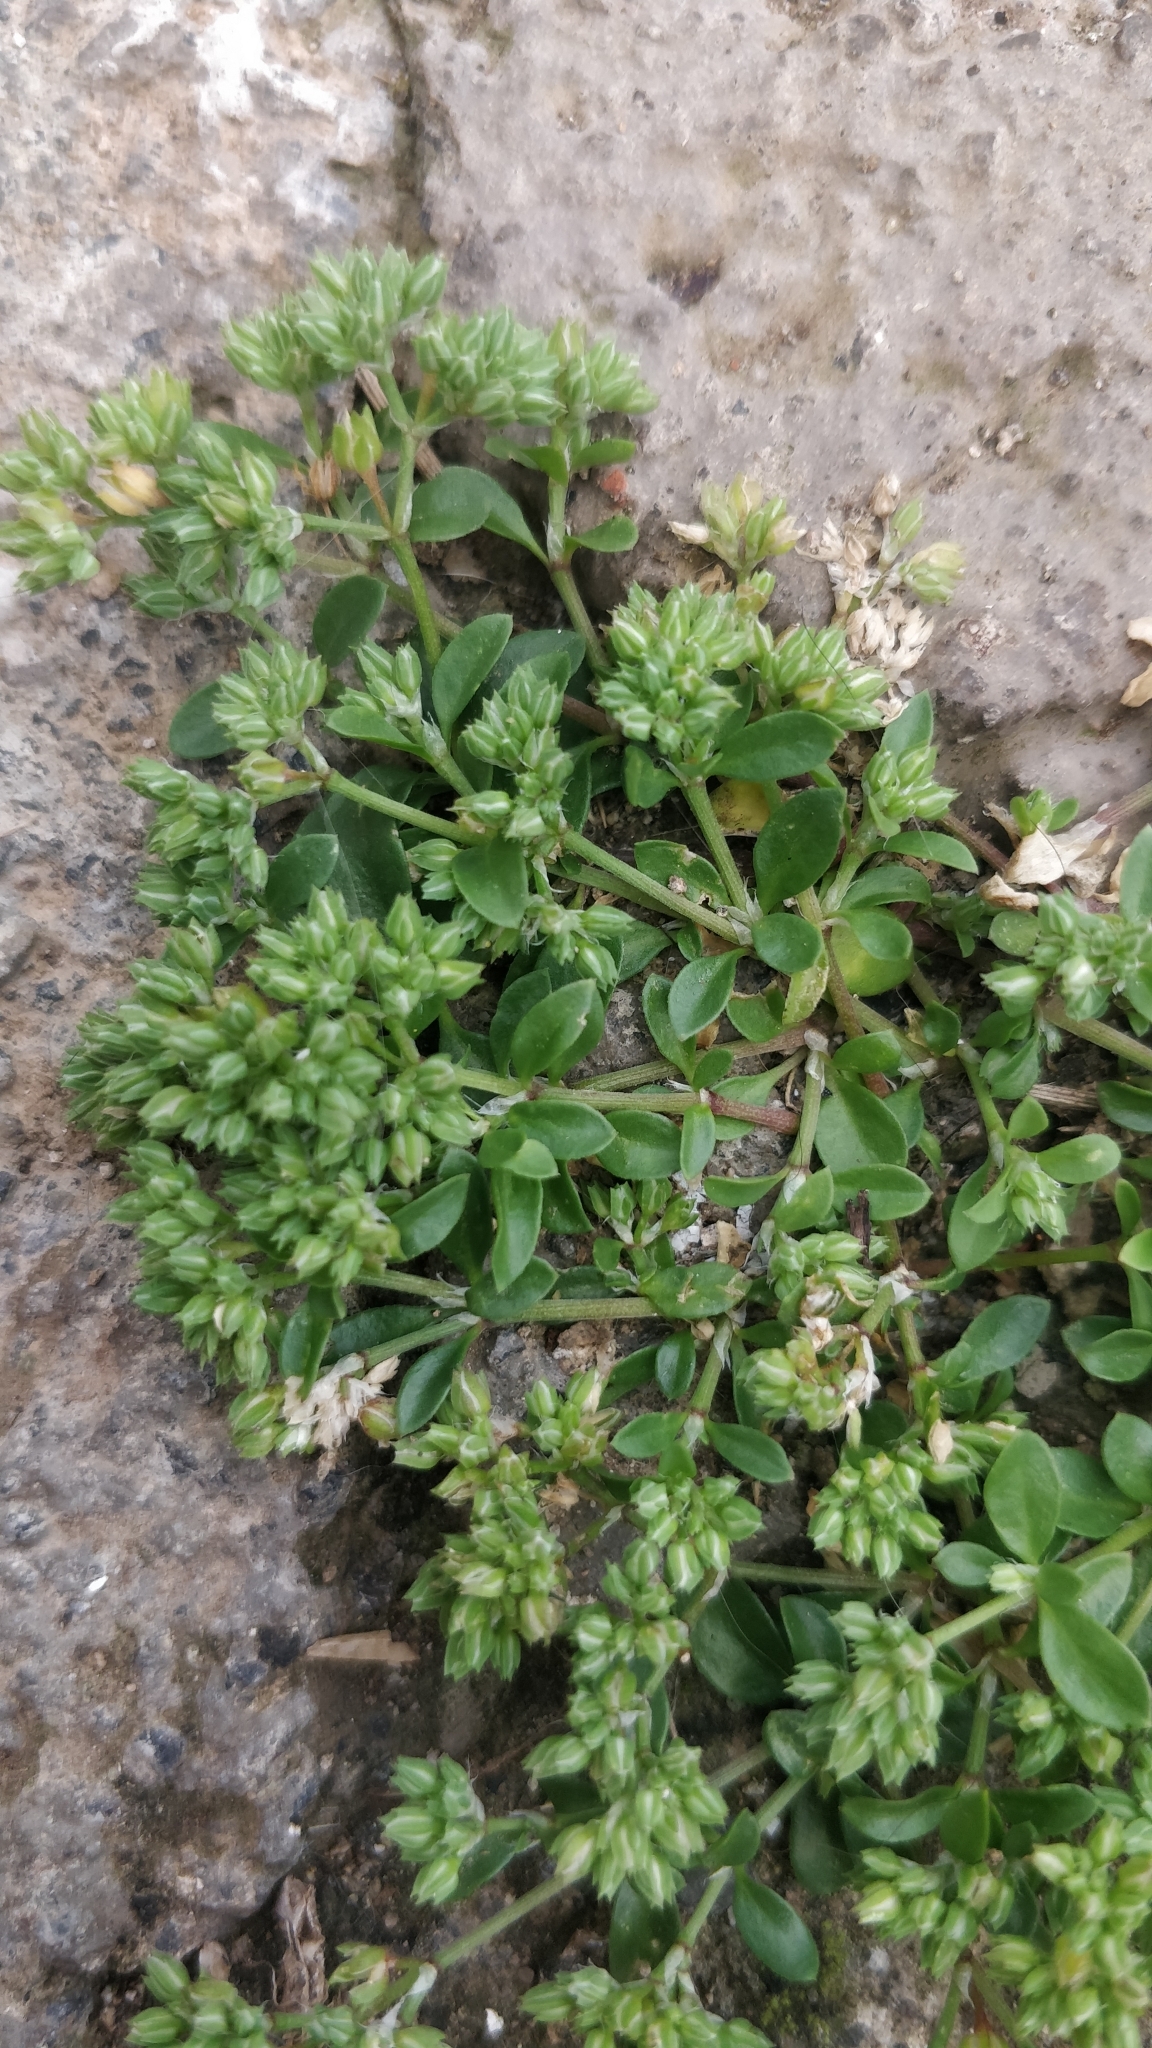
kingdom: Plantae
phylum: Tracheophyta
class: Magnoliopsida
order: Caryophyllales
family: Caryophyllaceae
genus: Polycarpon
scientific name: Polycarpon tetraphyllum
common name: Four-leaved all-seed
